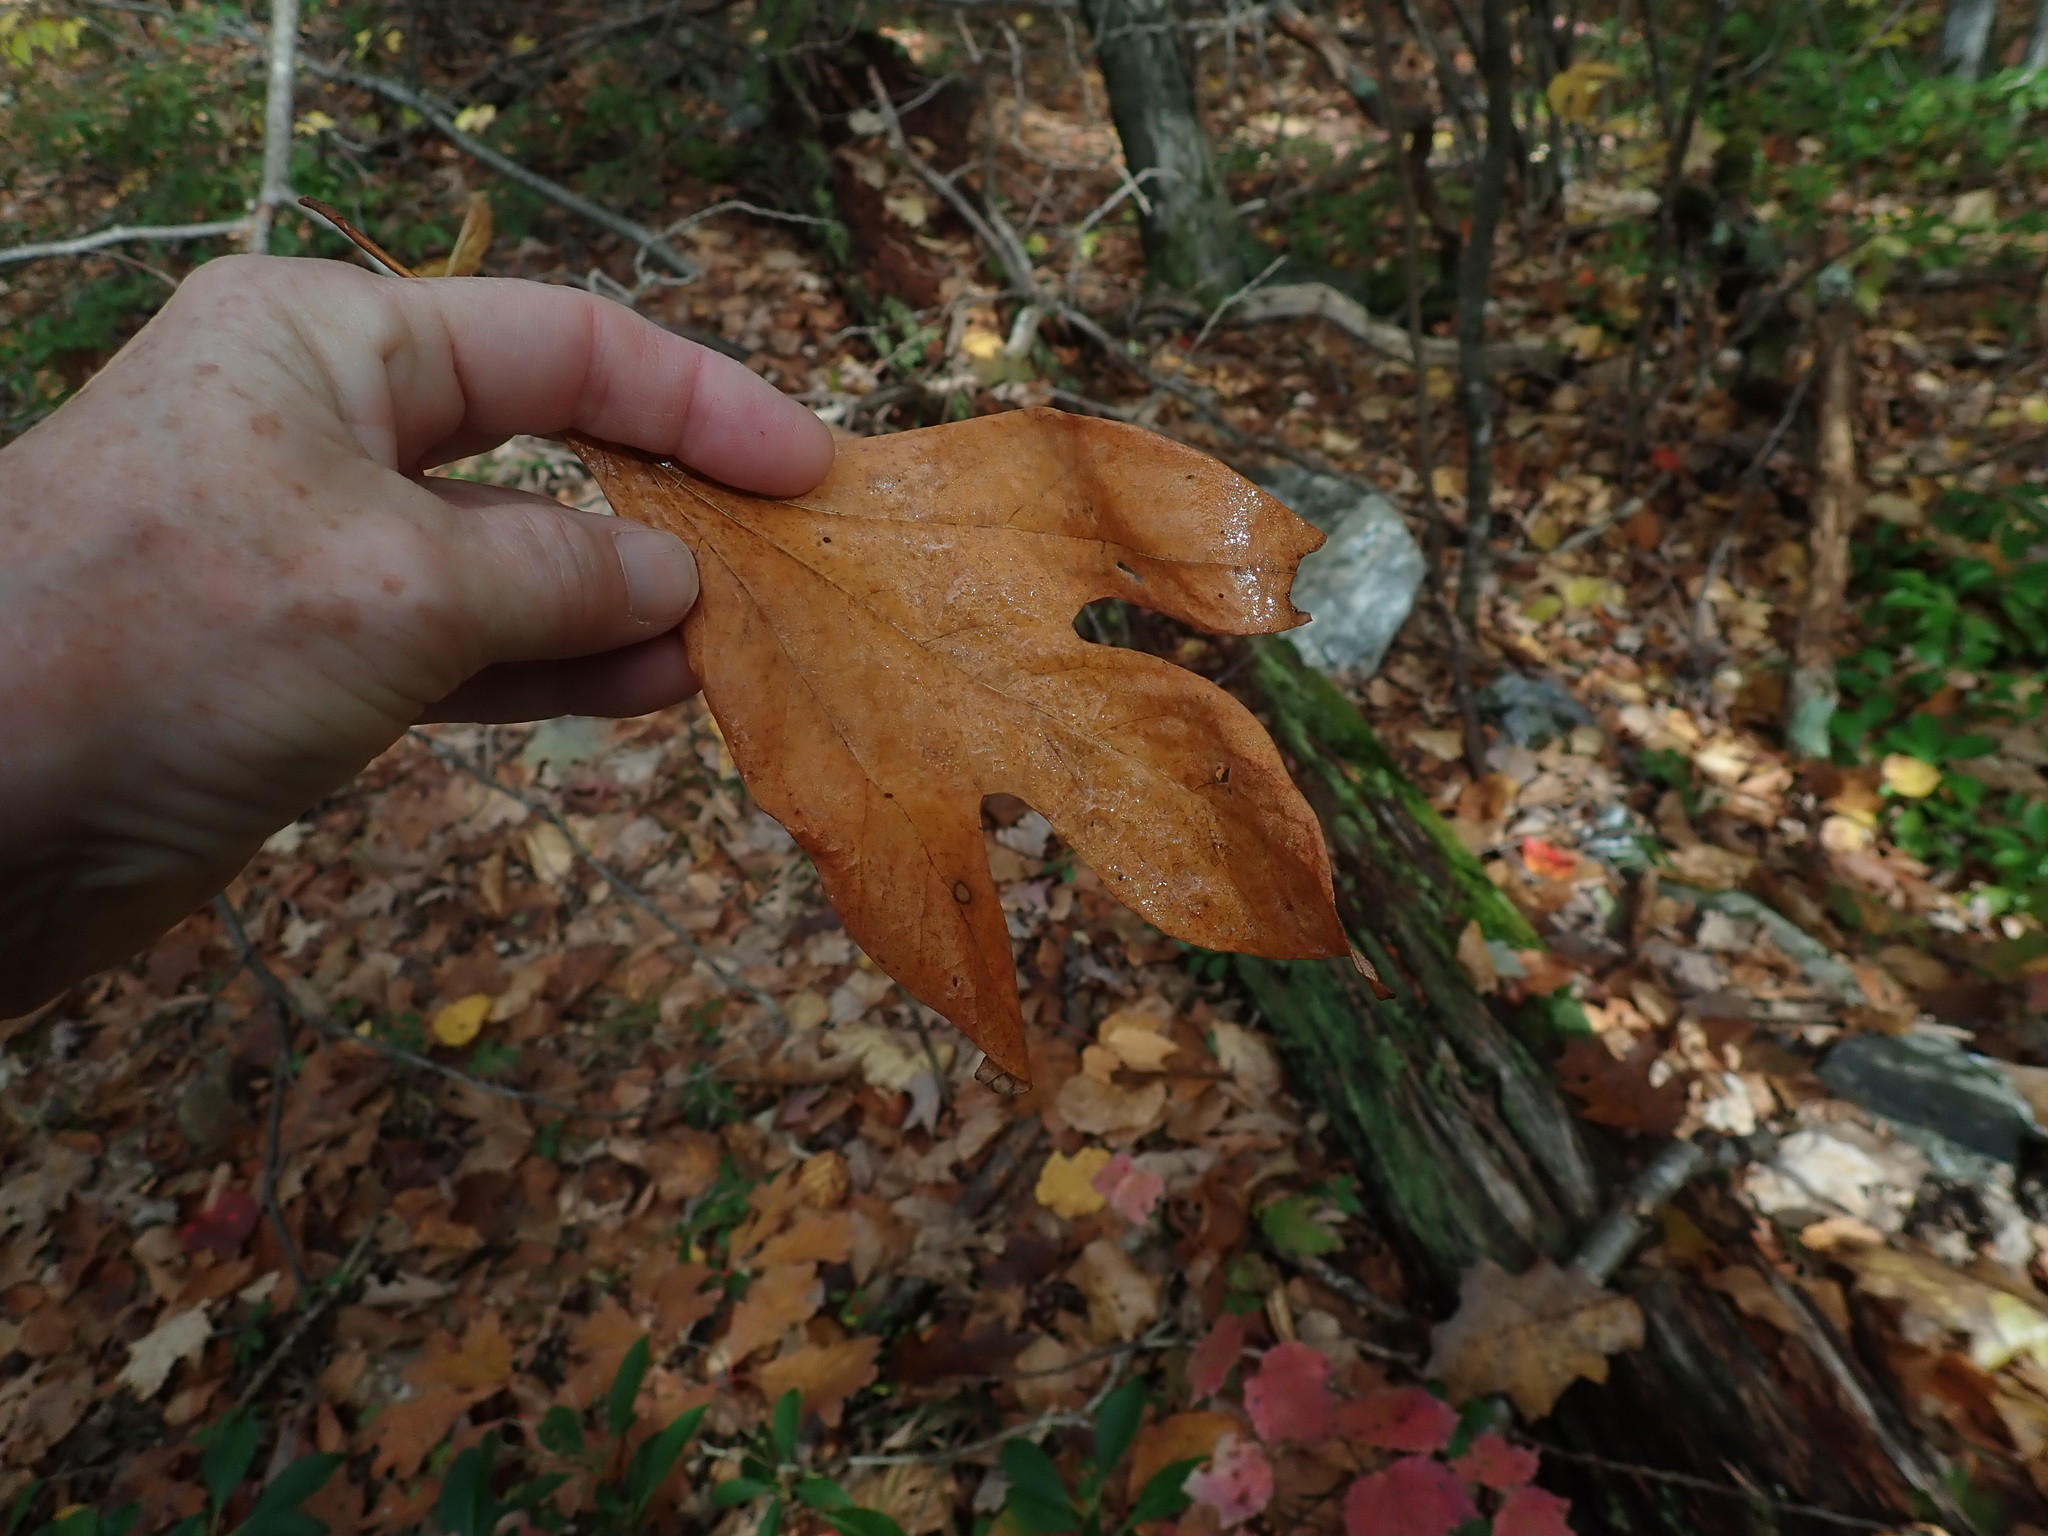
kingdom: Plantae
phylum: Tracheophyta
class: Magnoliopsida
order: Laurales
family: Lauraceae
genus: Sassafras
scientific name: Sassafras albidum
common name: Sassafras
